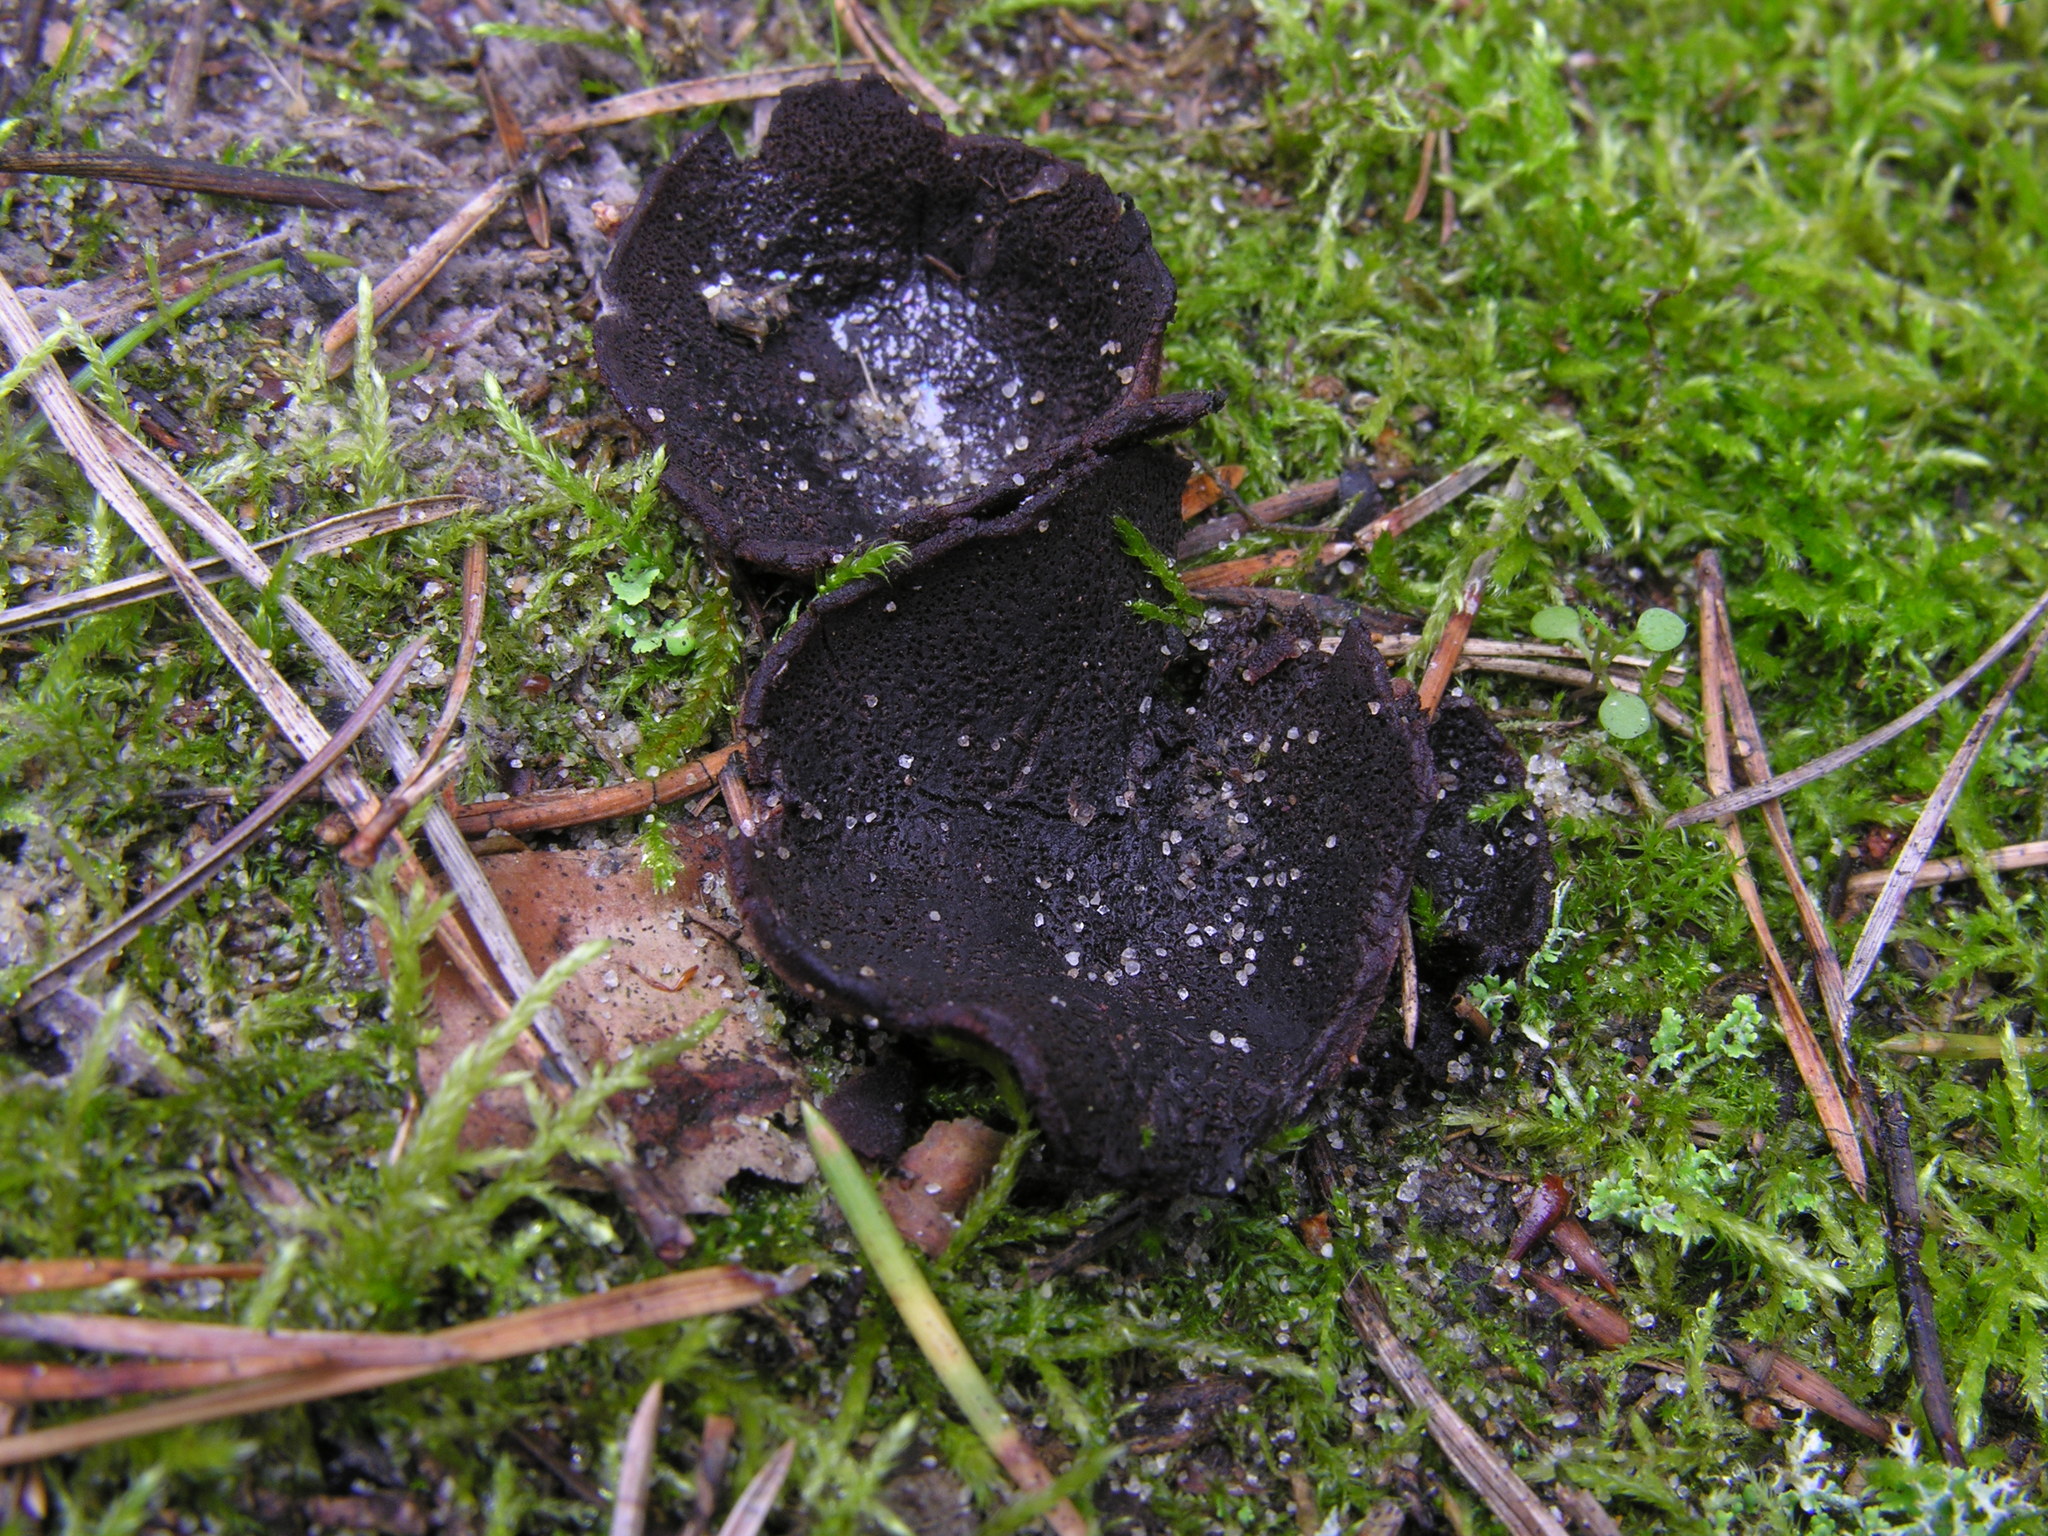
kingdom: Fungi
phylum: Ascomycota
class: Pezizomycetes
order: Pezizales
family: Pezizaceae
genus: Legaliana
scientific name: Legaliana badia
